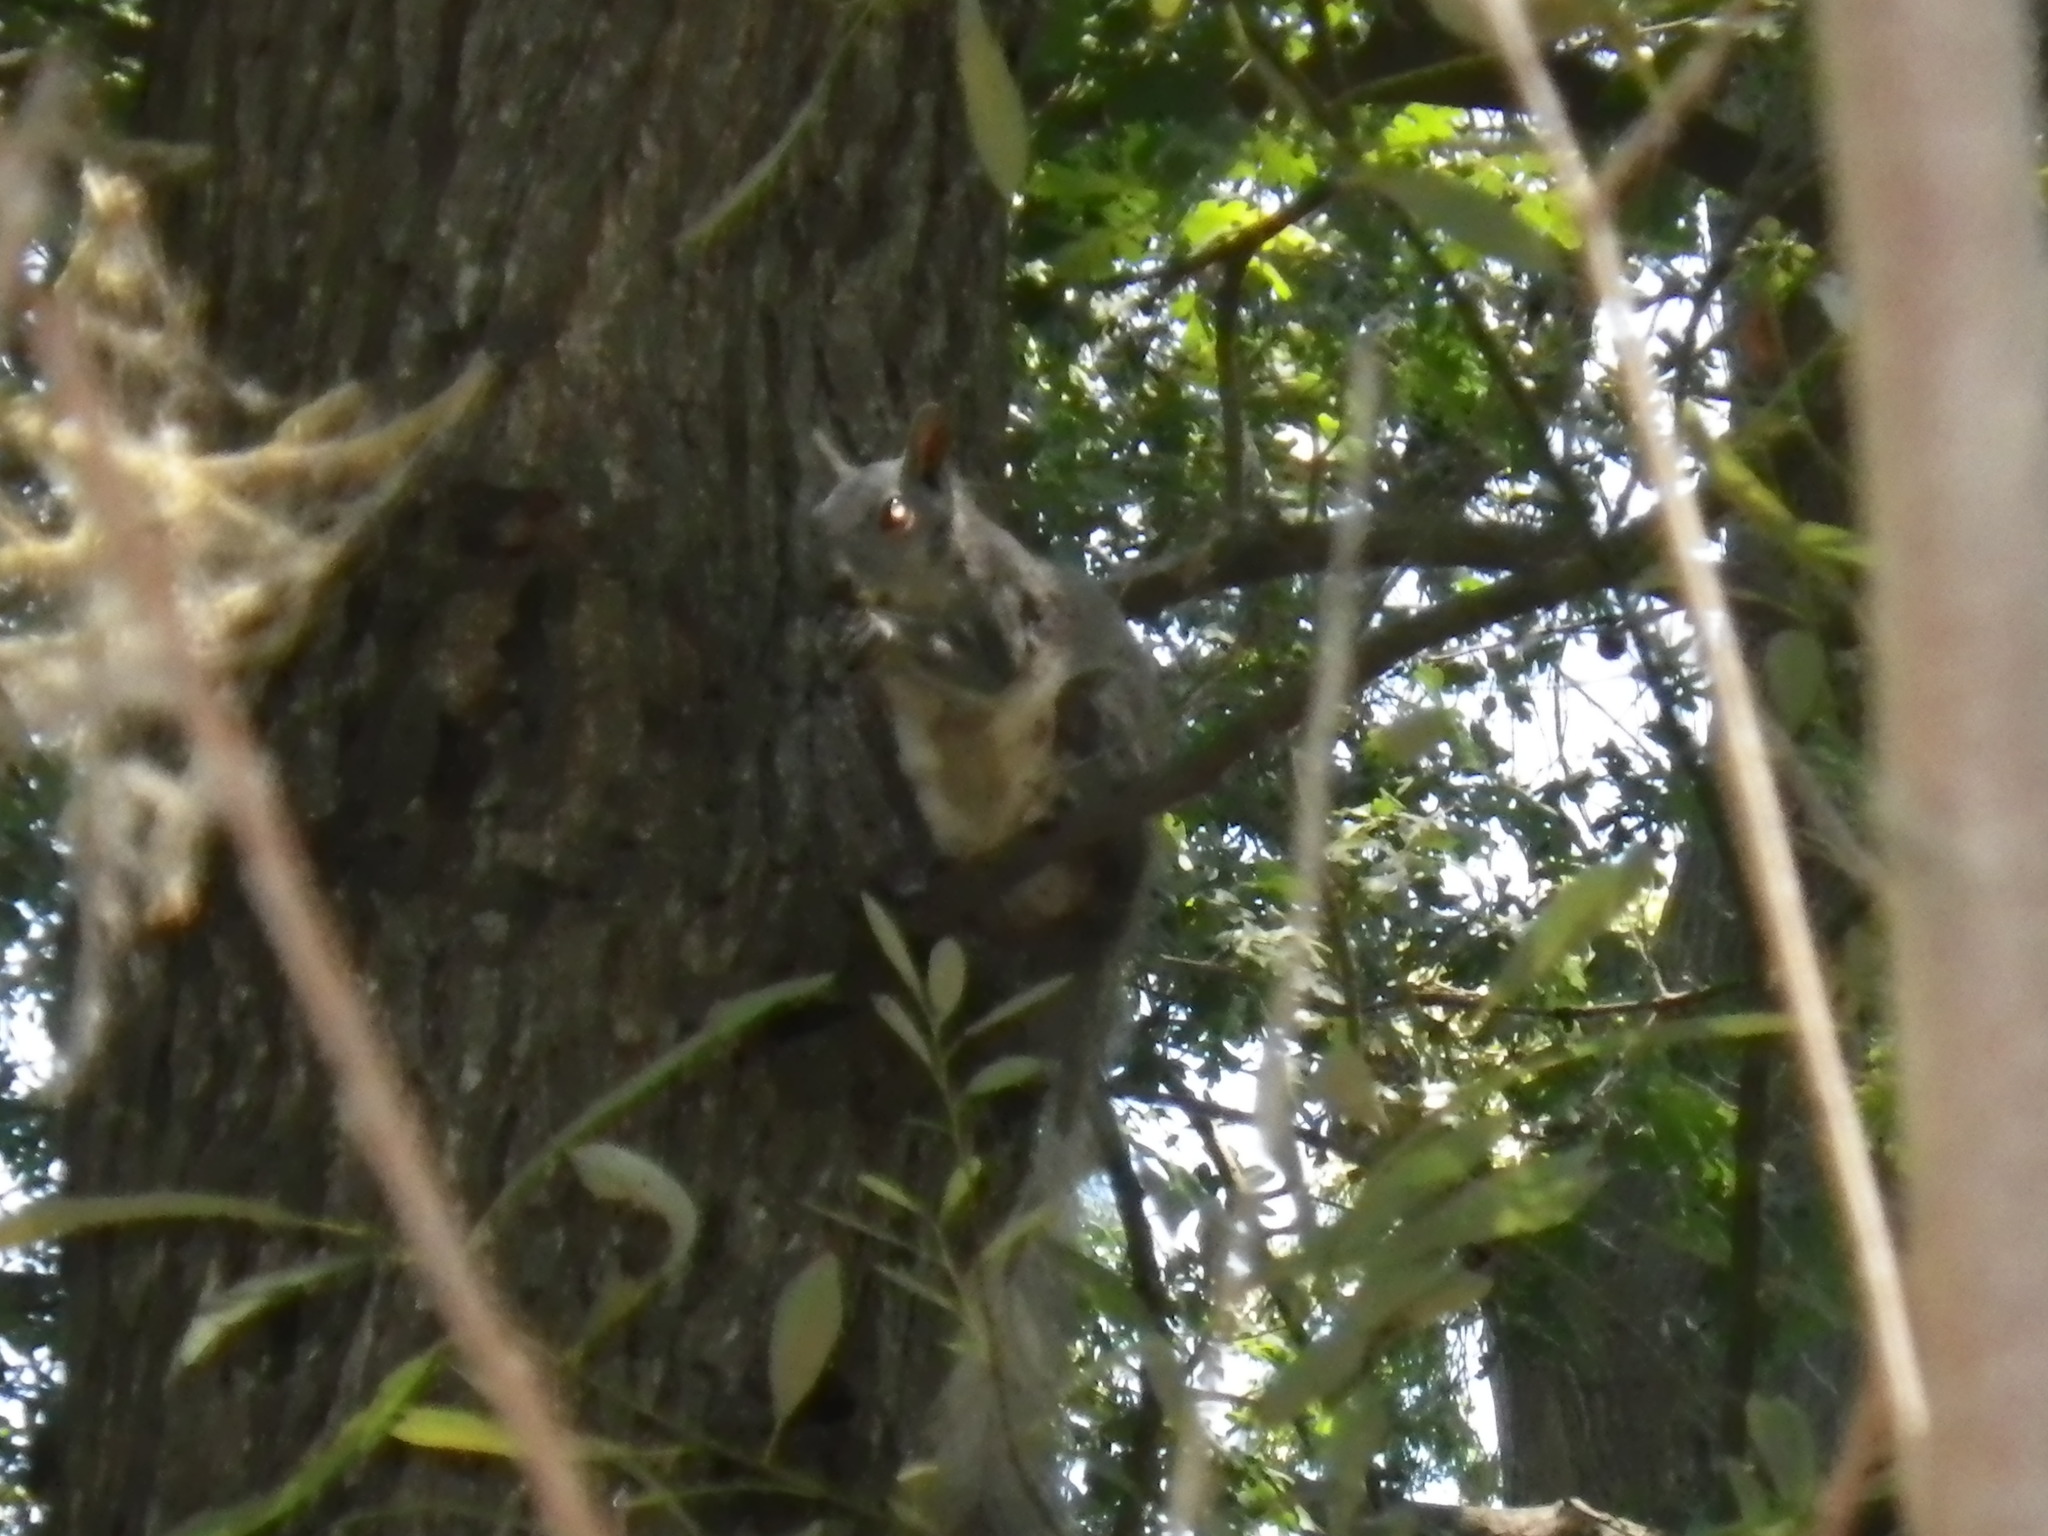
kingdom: Animalia
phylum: Chordata
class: Mammalia
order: Rodentia
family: Sciuridae
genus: Sciurus
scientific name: Sciurus griseus
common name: Western gray squirrel
